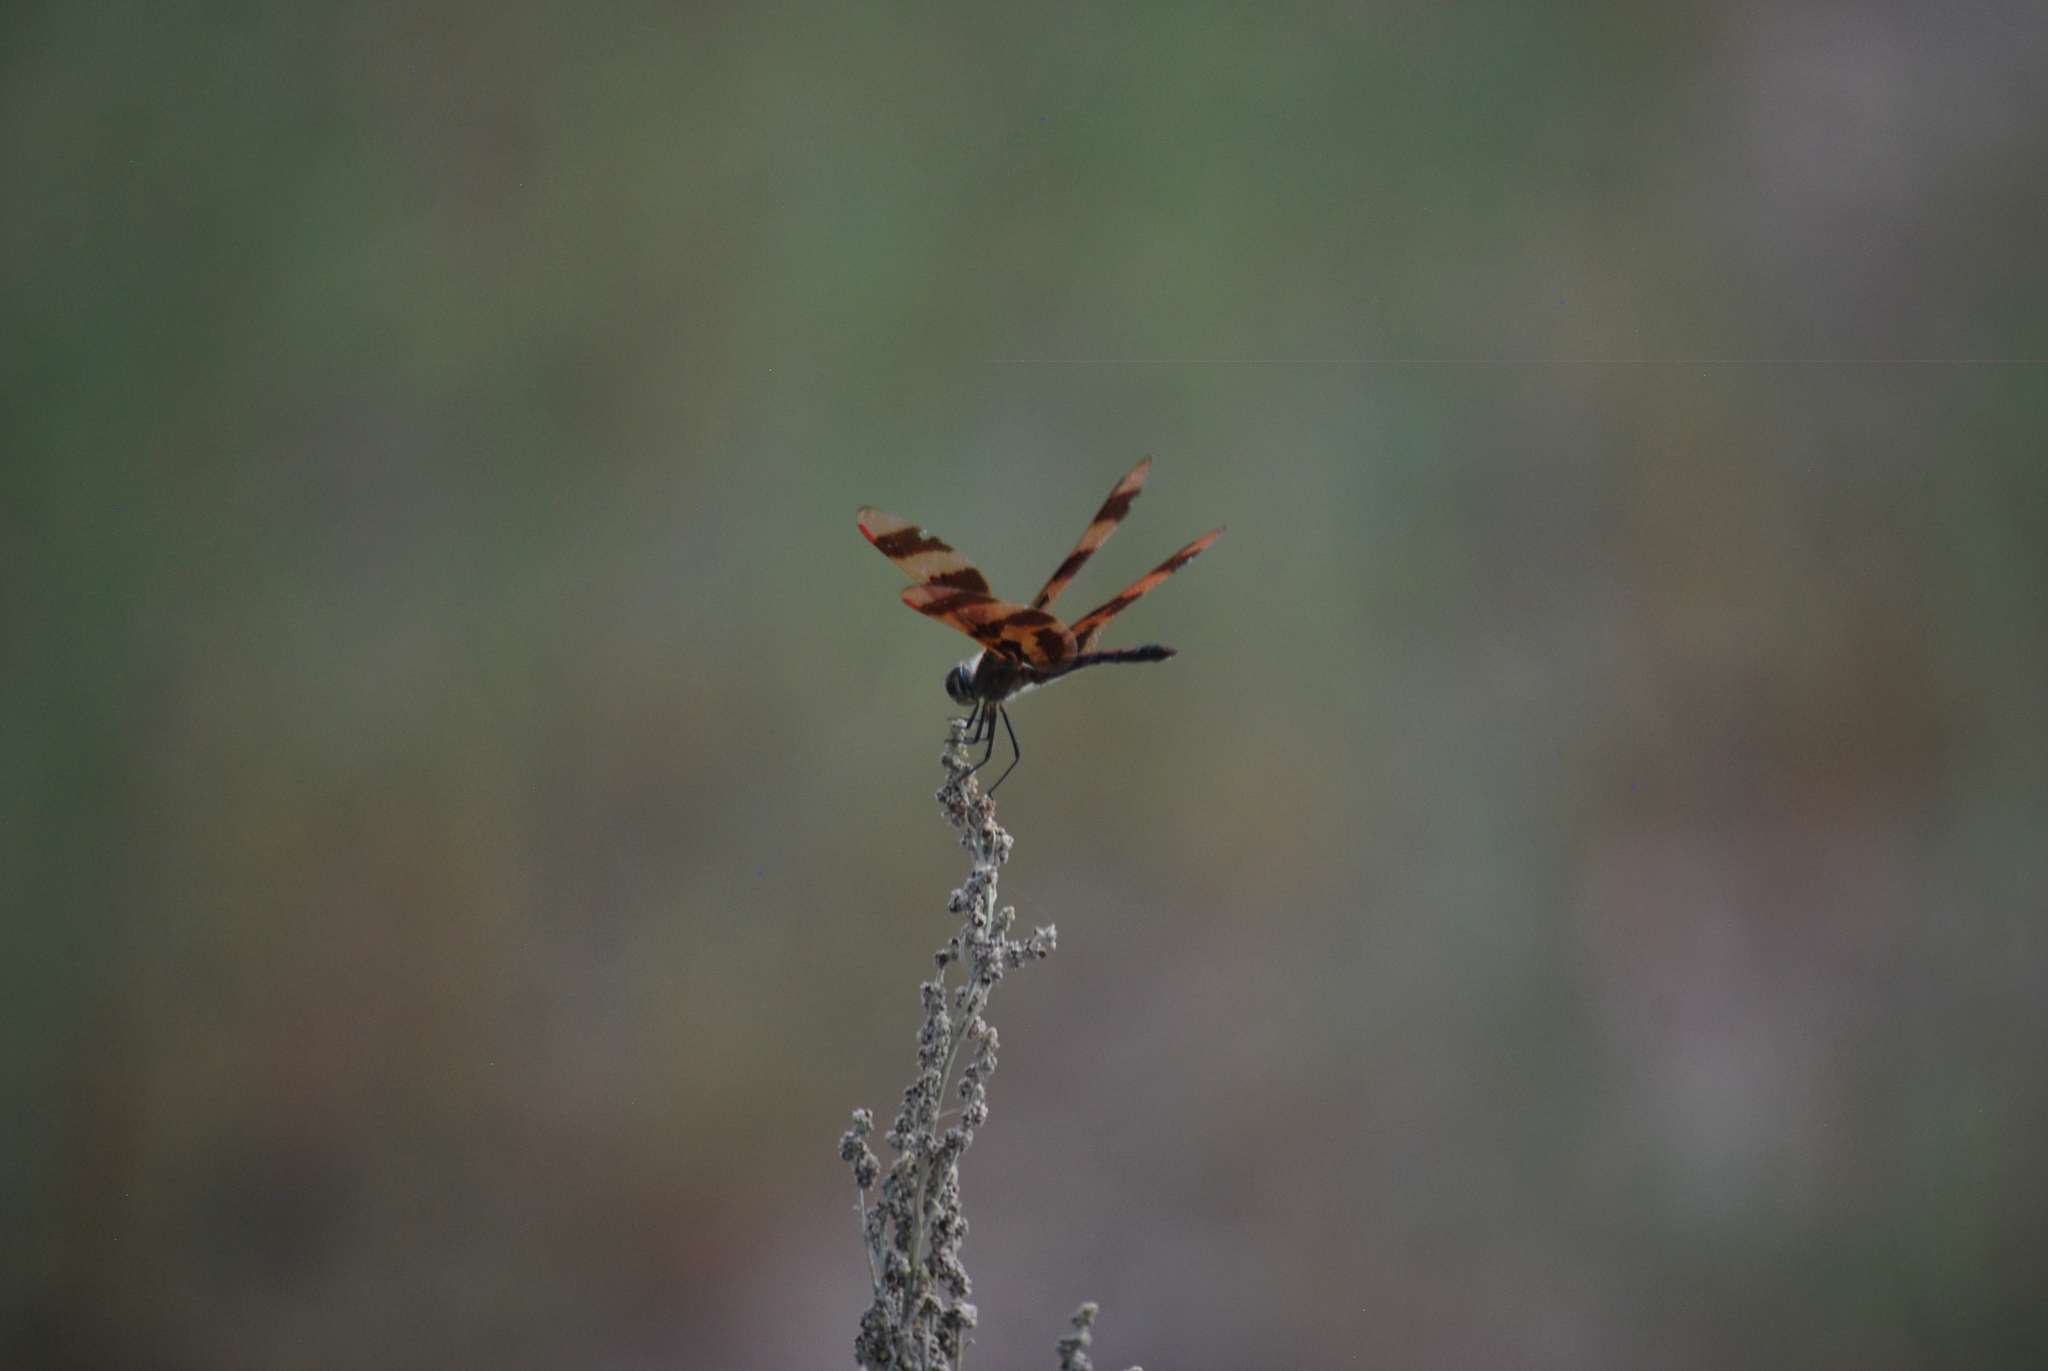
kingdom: Animalia
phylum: Arthropoda
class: Insecta
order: Odonata
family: Libellulidae
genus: Celithemis
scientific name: Celithemis eponina
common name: Halloween pennant
